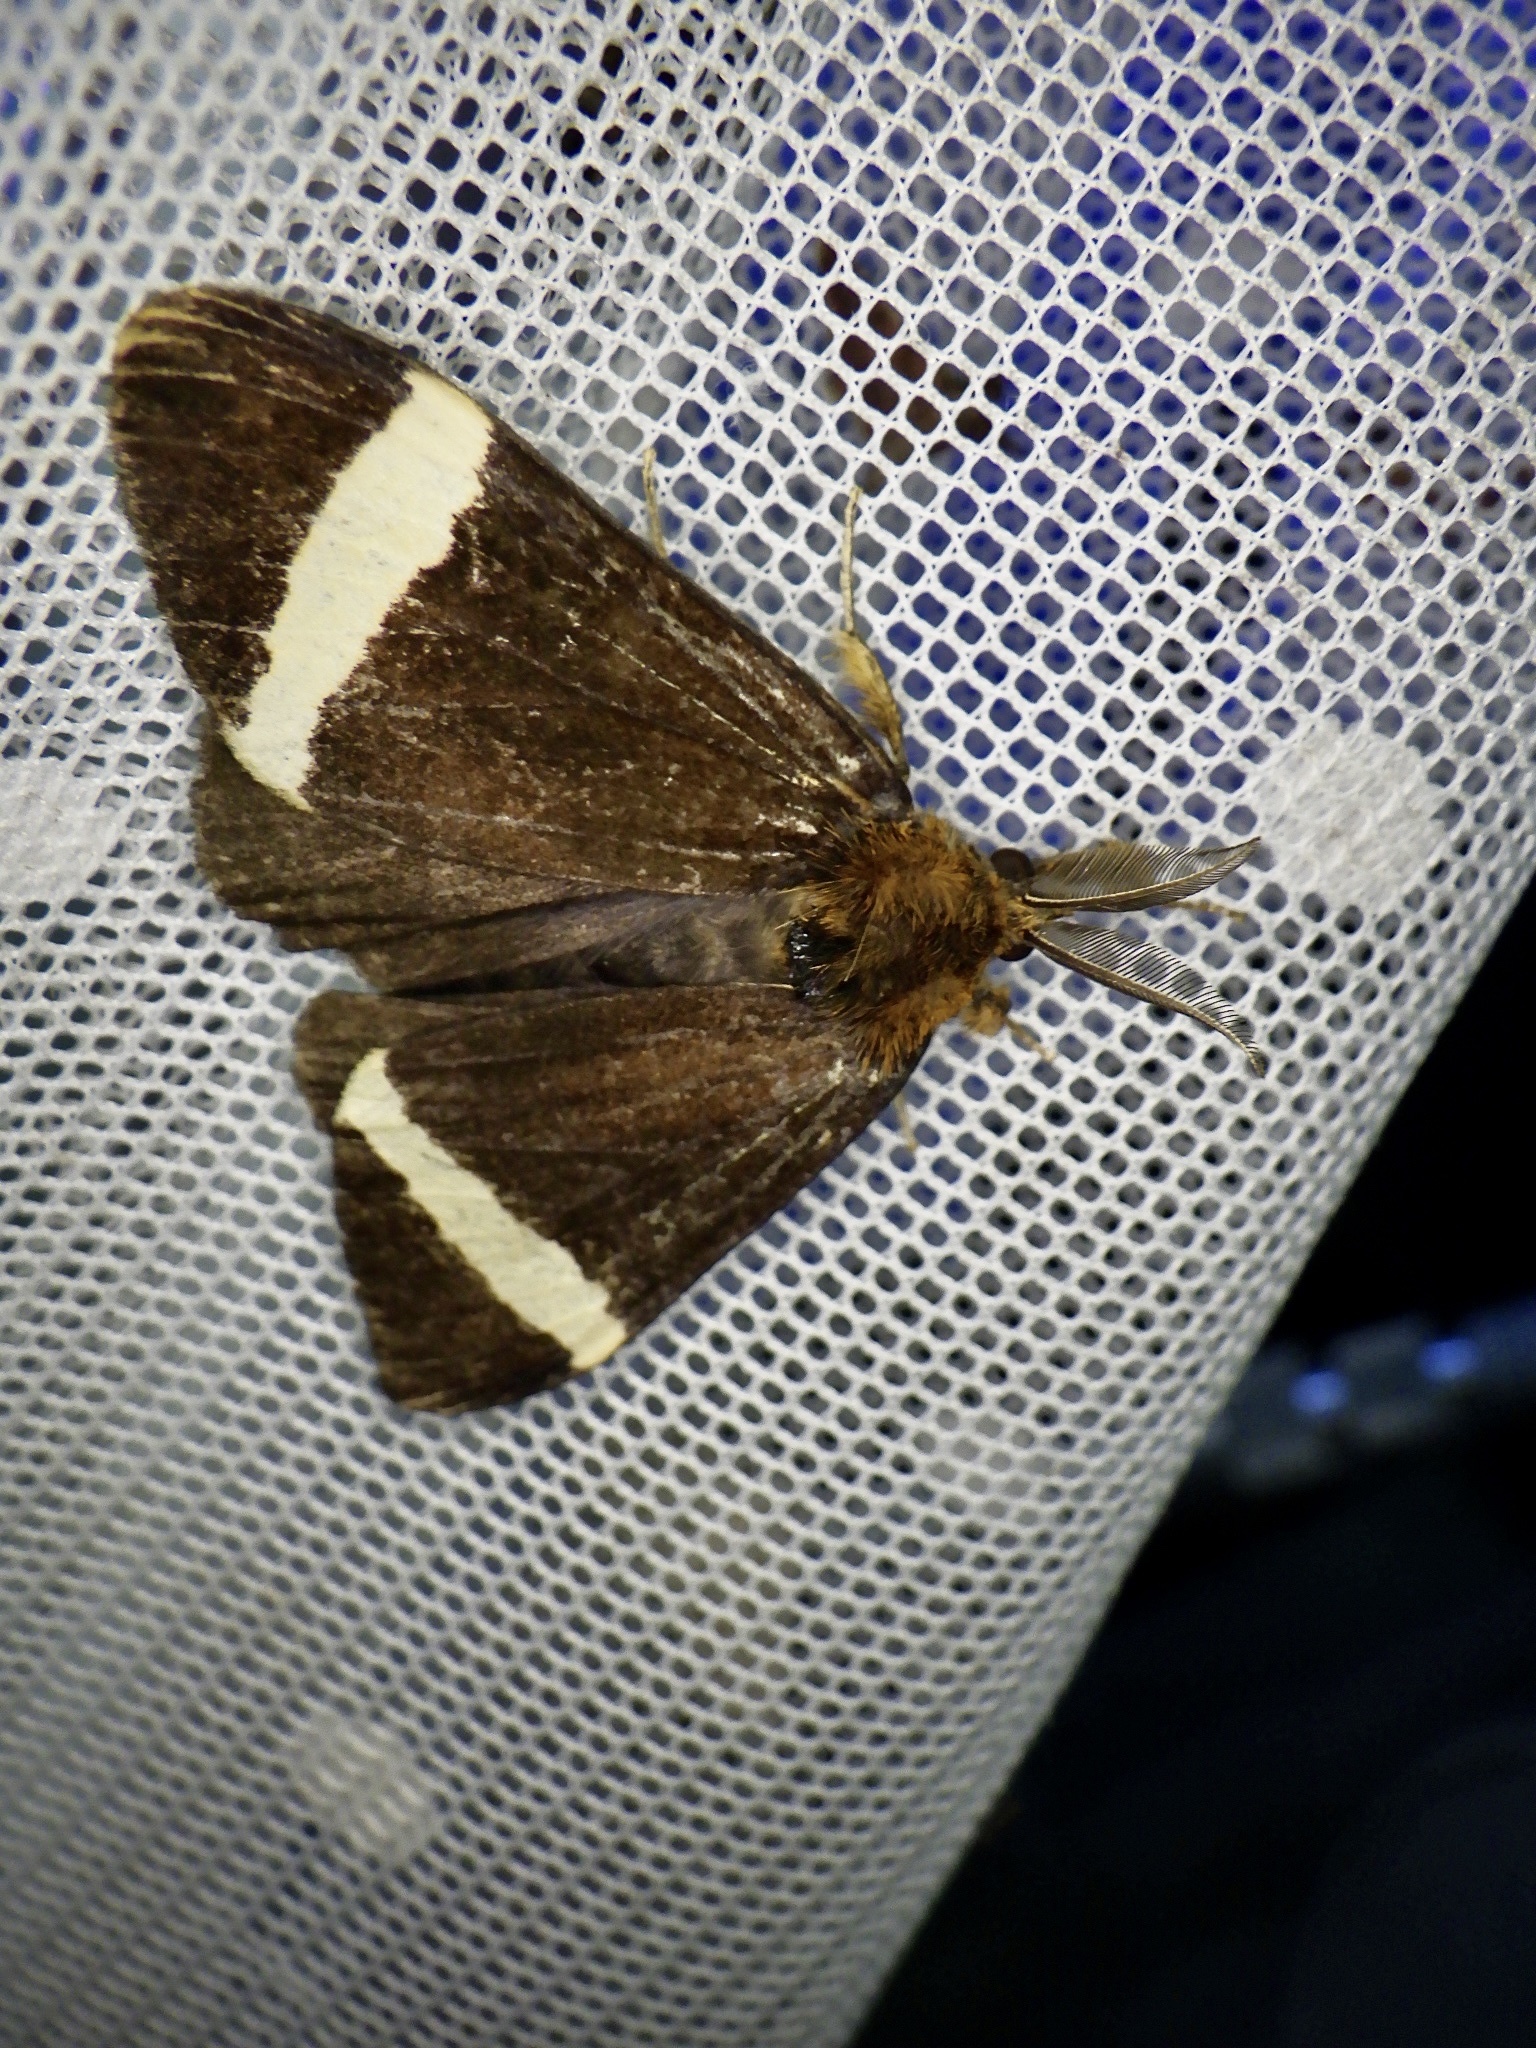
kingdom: Animalia
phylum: Arthropoda
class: Insecta
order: Lepidoptera
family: Erebidae
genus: Kuromondokuga
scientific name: Kuromondokuga albofascia
